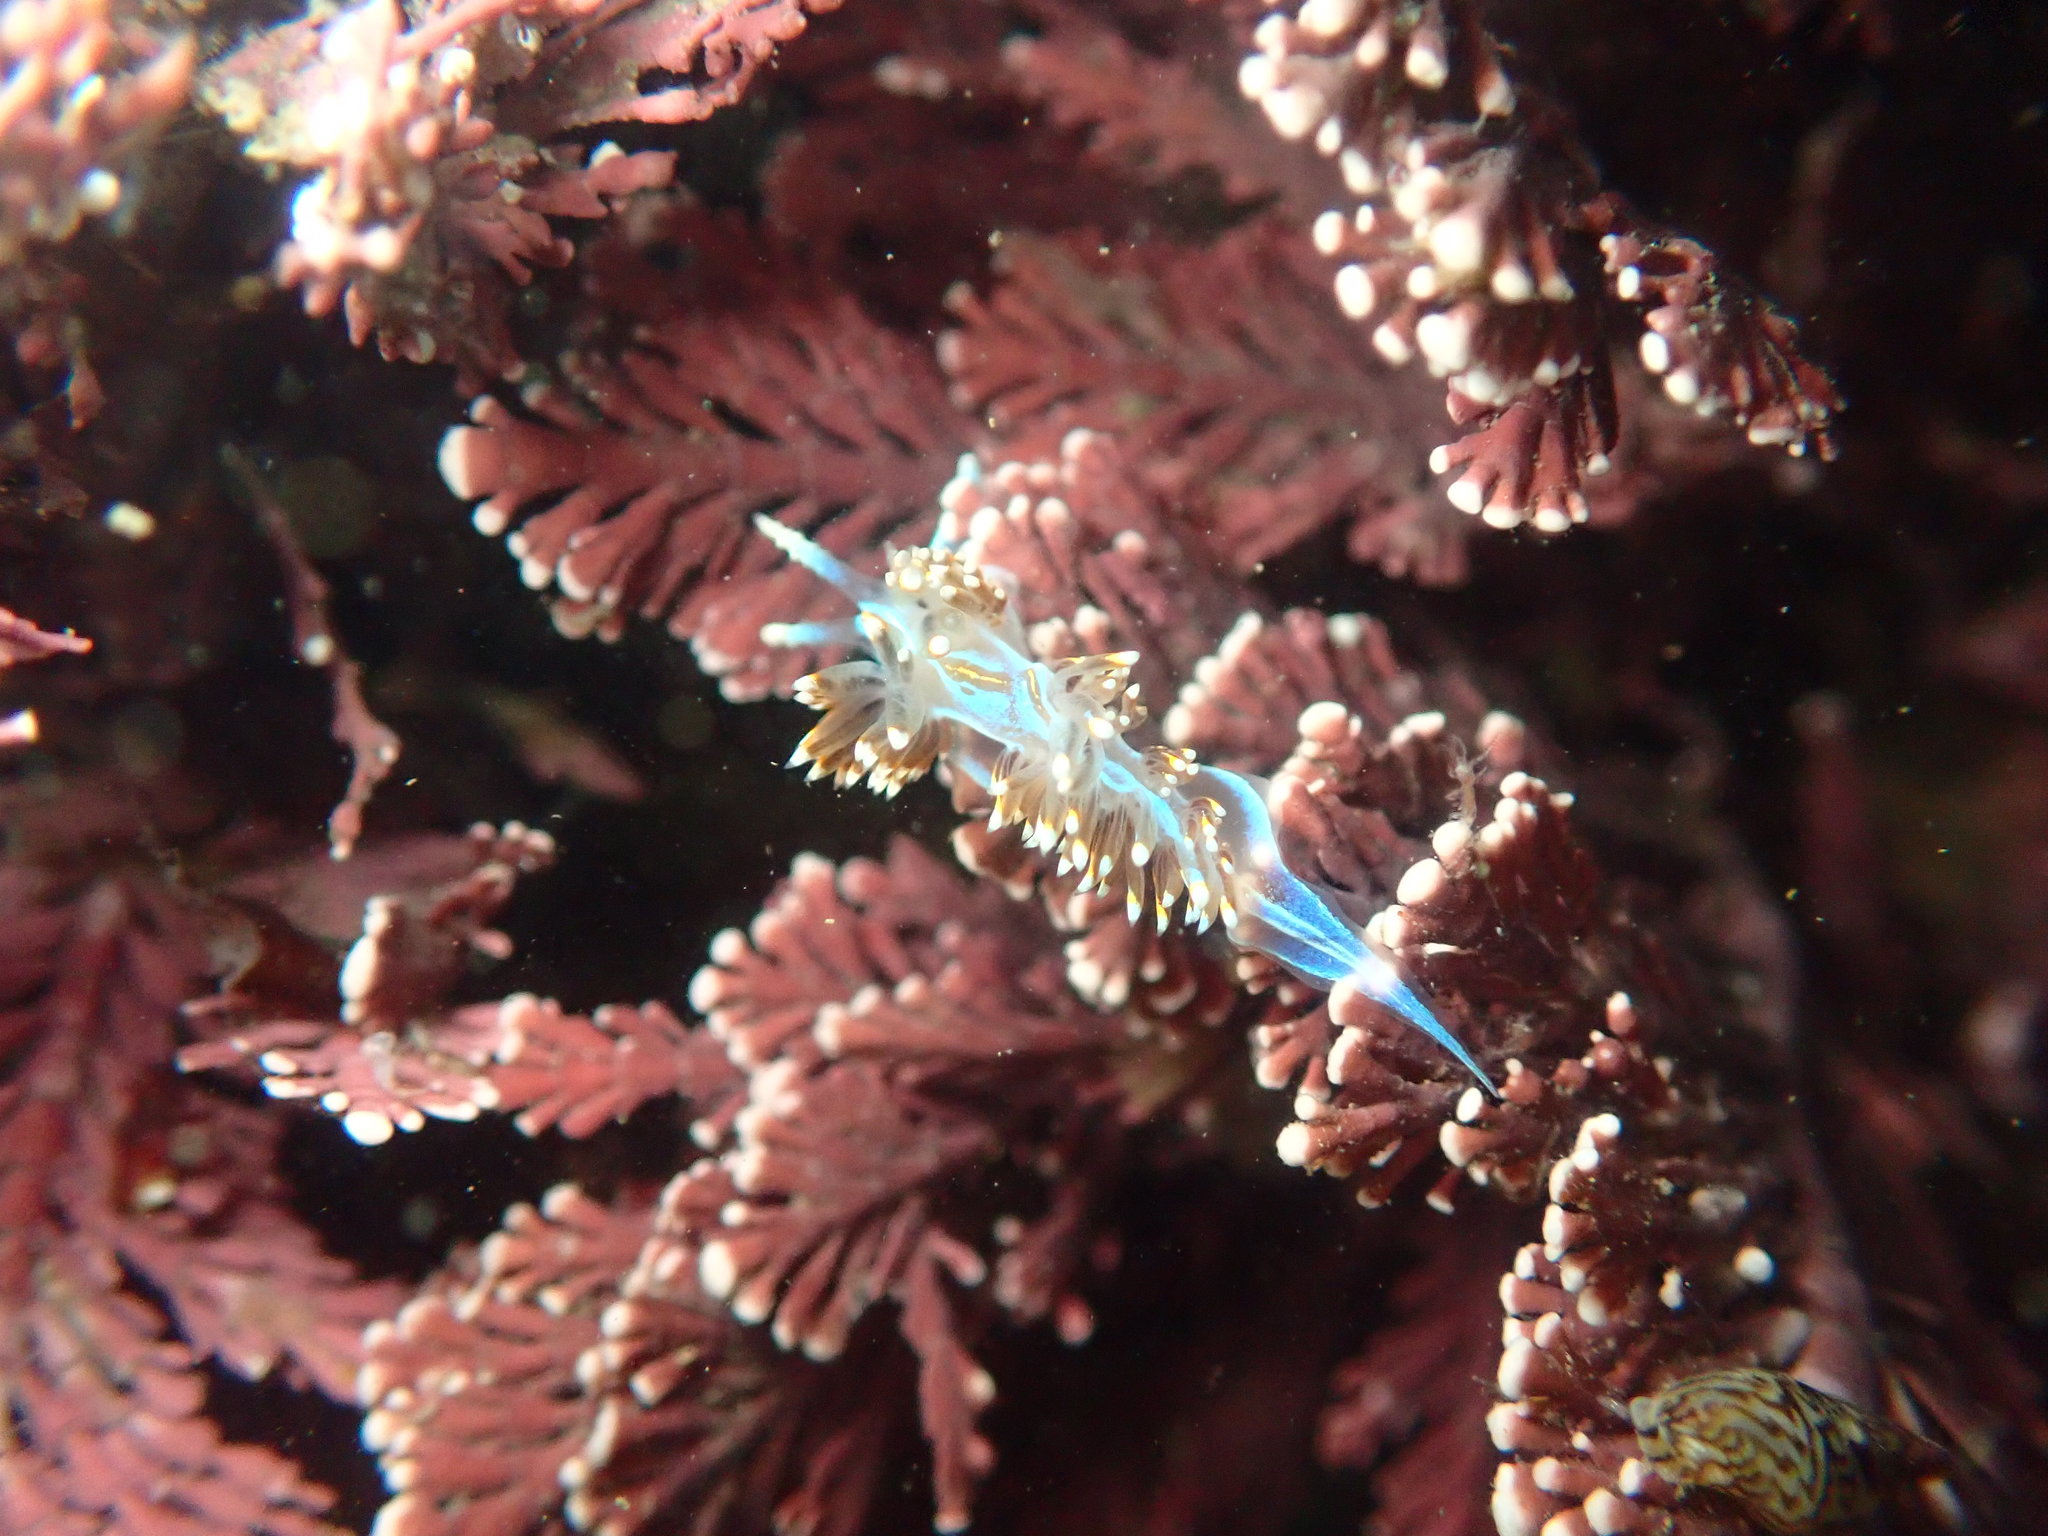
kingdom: Animalia
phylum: Mollusca
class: Gastropoda
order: Nudibranchia
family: Myrrhinidae
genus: Hermissenda
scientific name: Hermissenda opalescens
